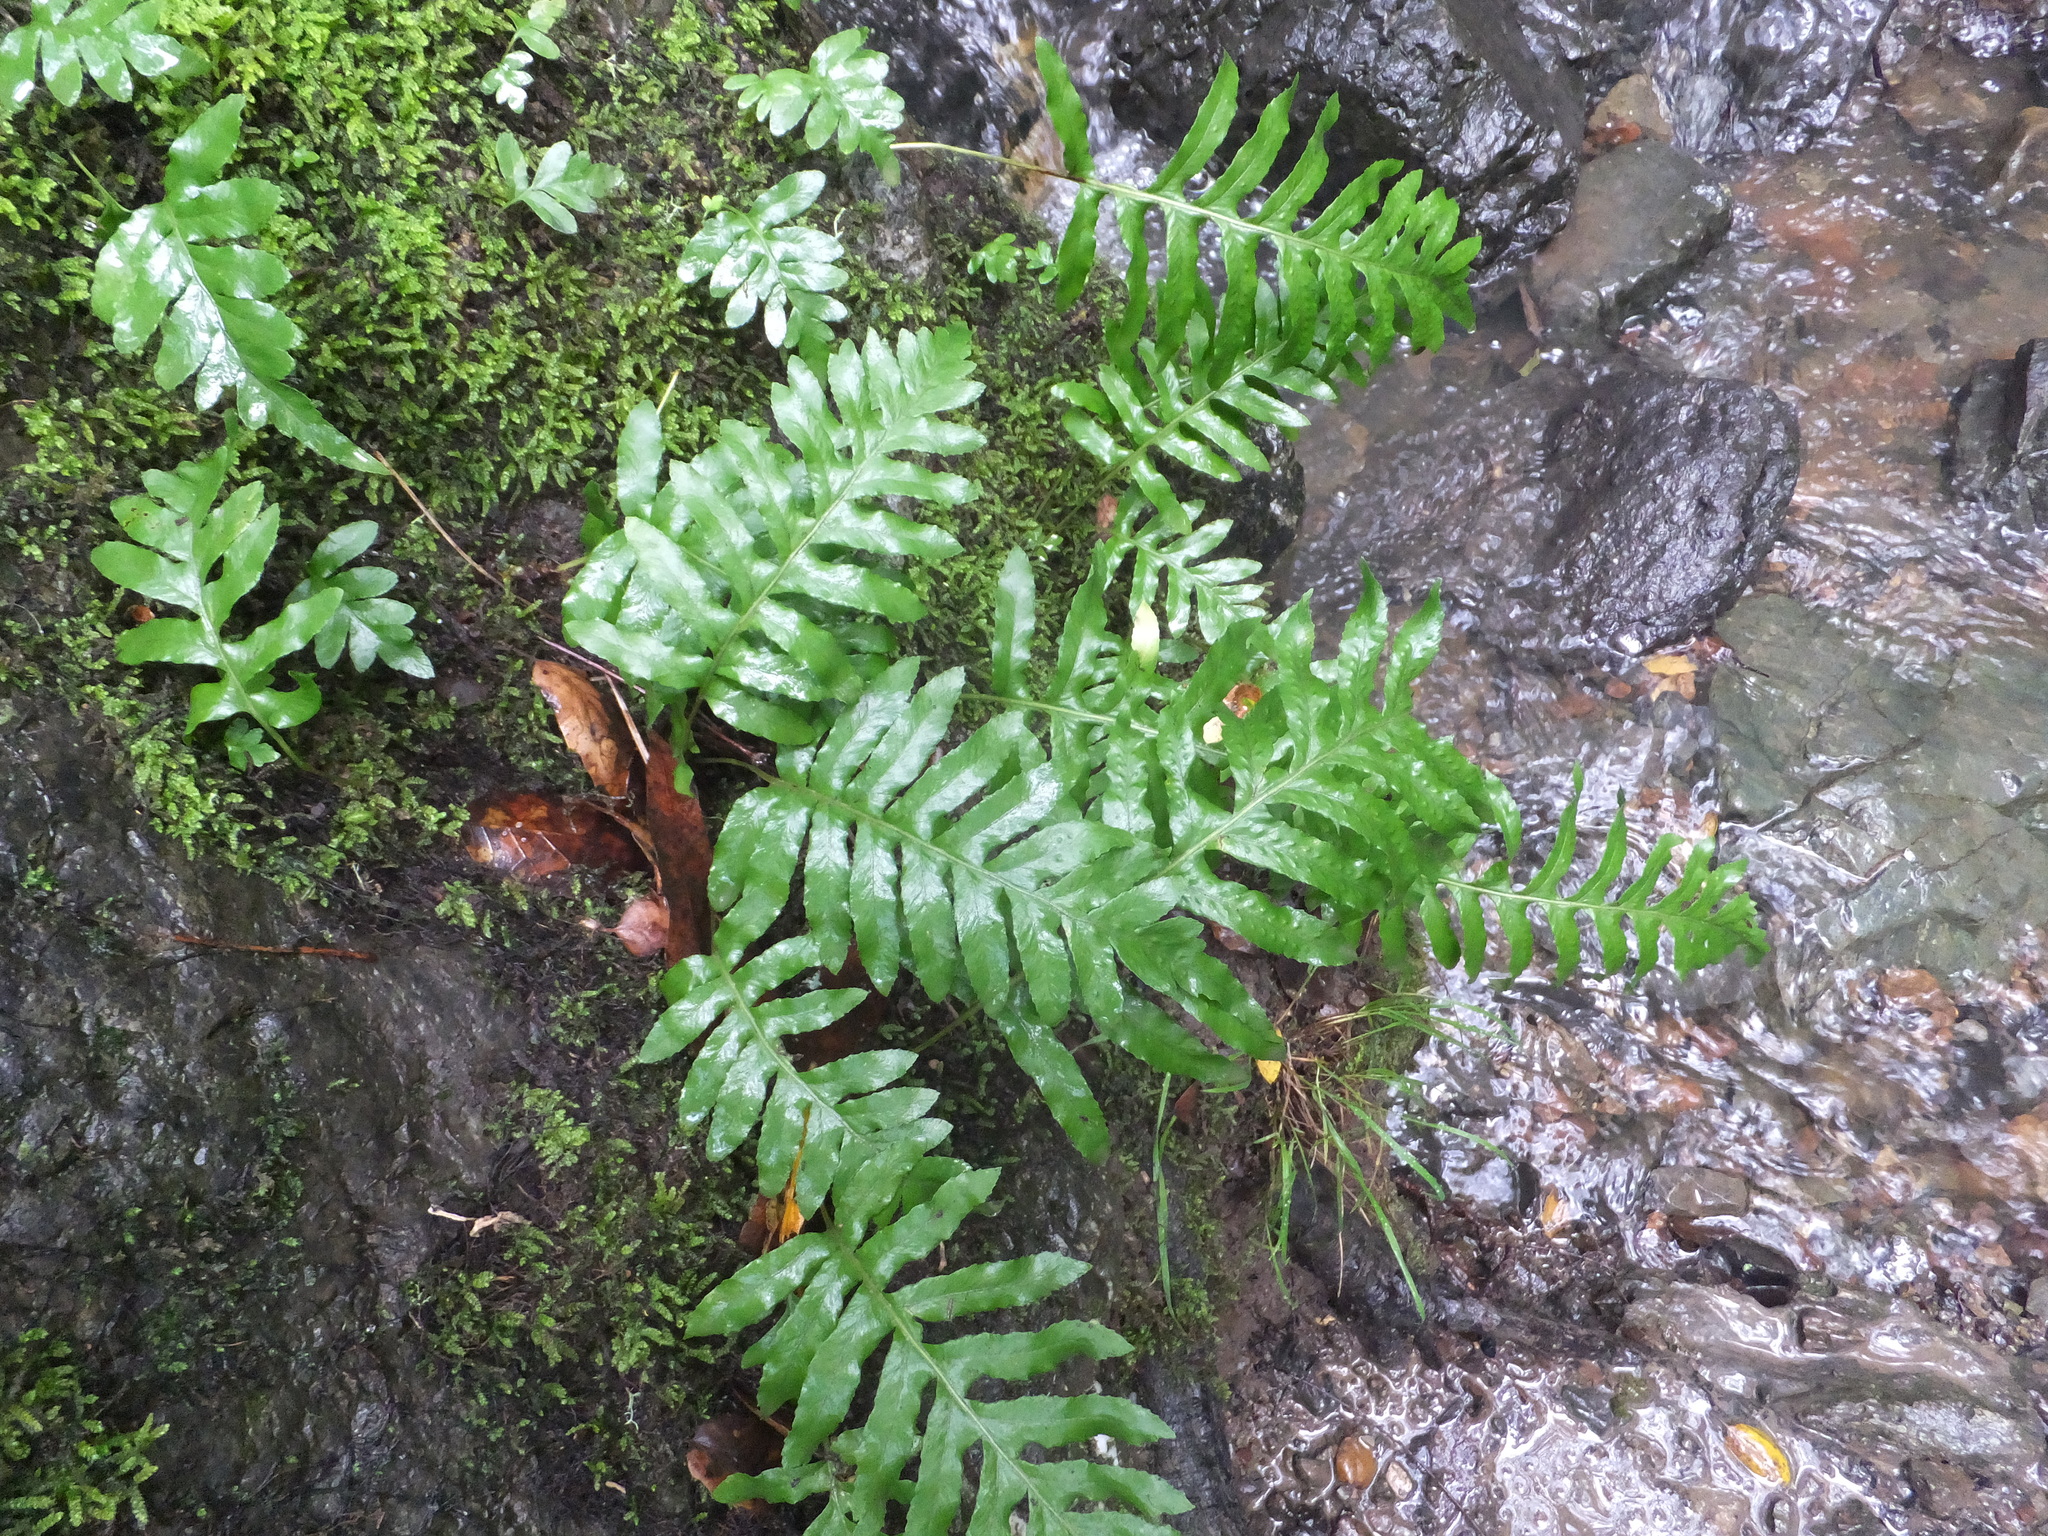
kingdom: Plantae
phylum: Tracheophyta
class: Polypodiopsida
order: Polypodiales
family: Polypodiaceae
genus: Polypodium
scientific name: Polypodium californicum
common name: California polypody
